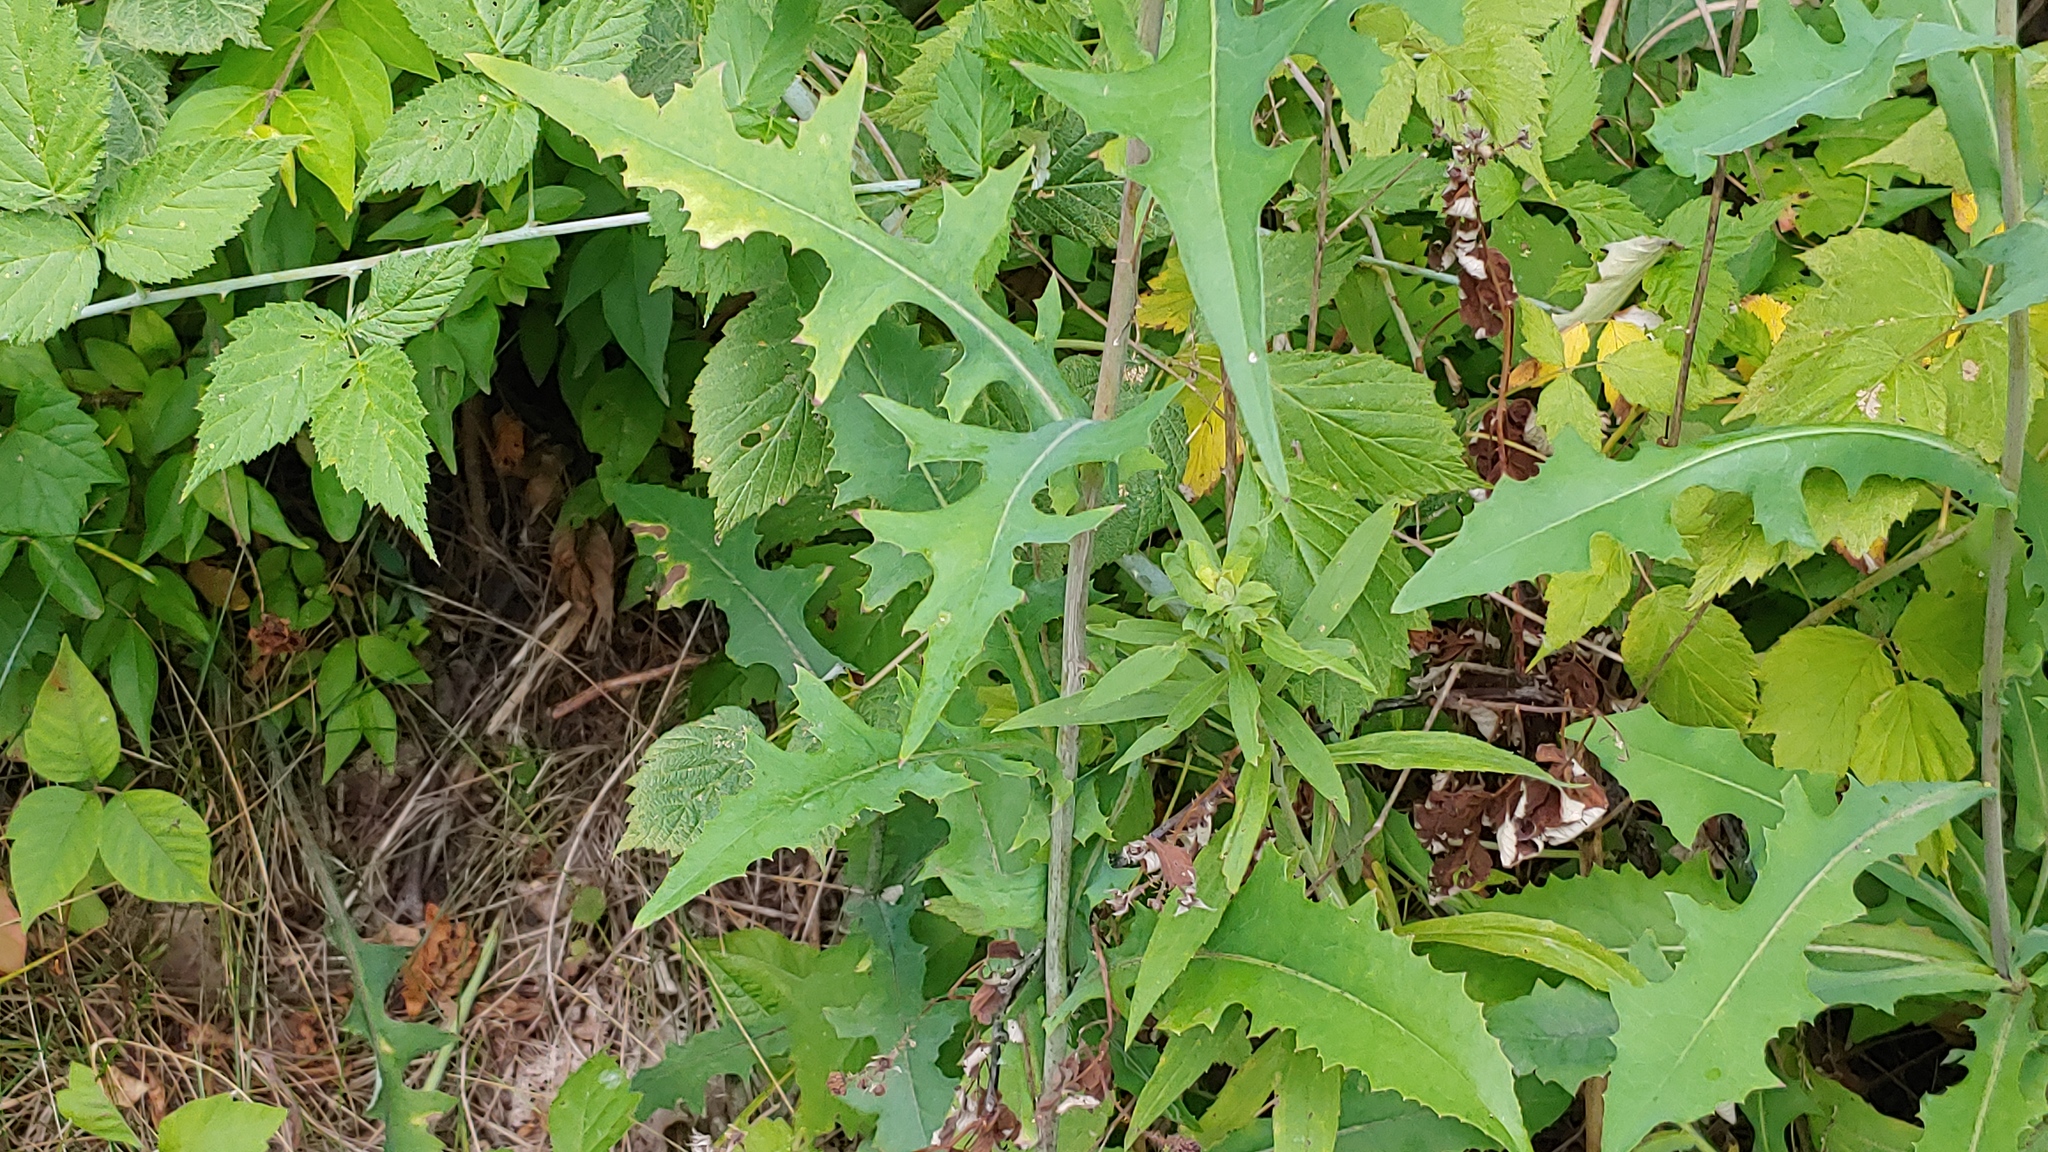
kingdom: Plantae
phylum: Tracheophyta
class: Magnoliopsida
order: Asterales
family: Asteraceae
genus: Lactuca
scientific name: Lactuca canadensis
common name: Canada lettuce
